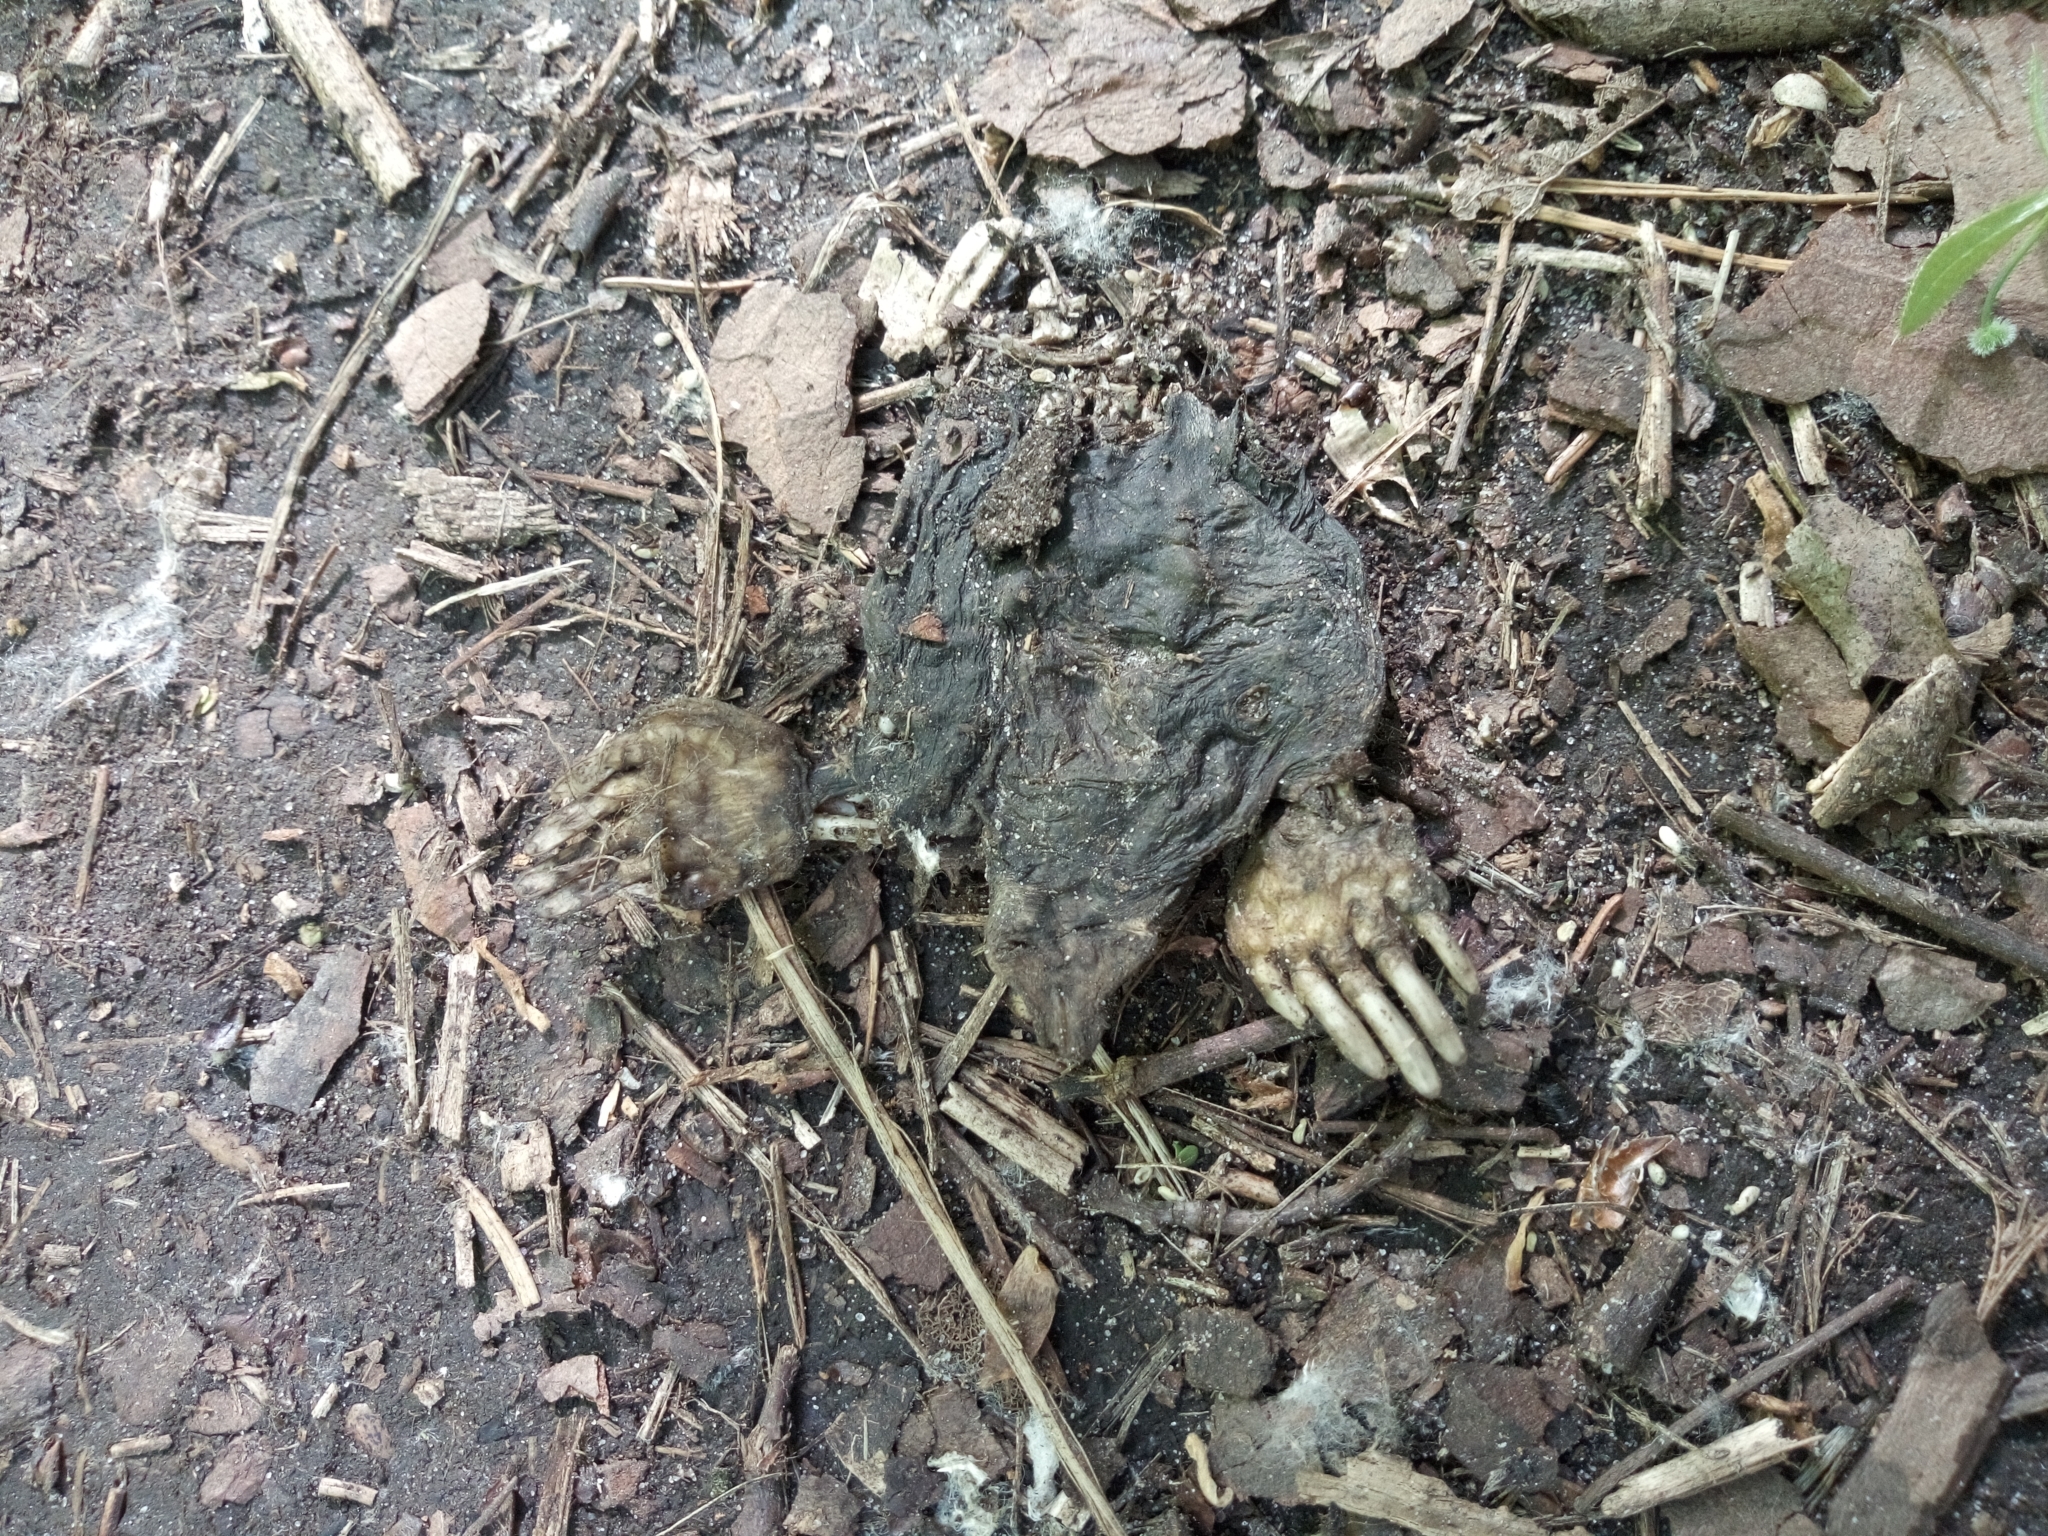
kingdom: Animalia
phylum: Chordata
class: Mammalia
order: Soricomorpha
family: Talpidae
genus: Talpa
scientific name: Talpa europaea
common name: European mole
